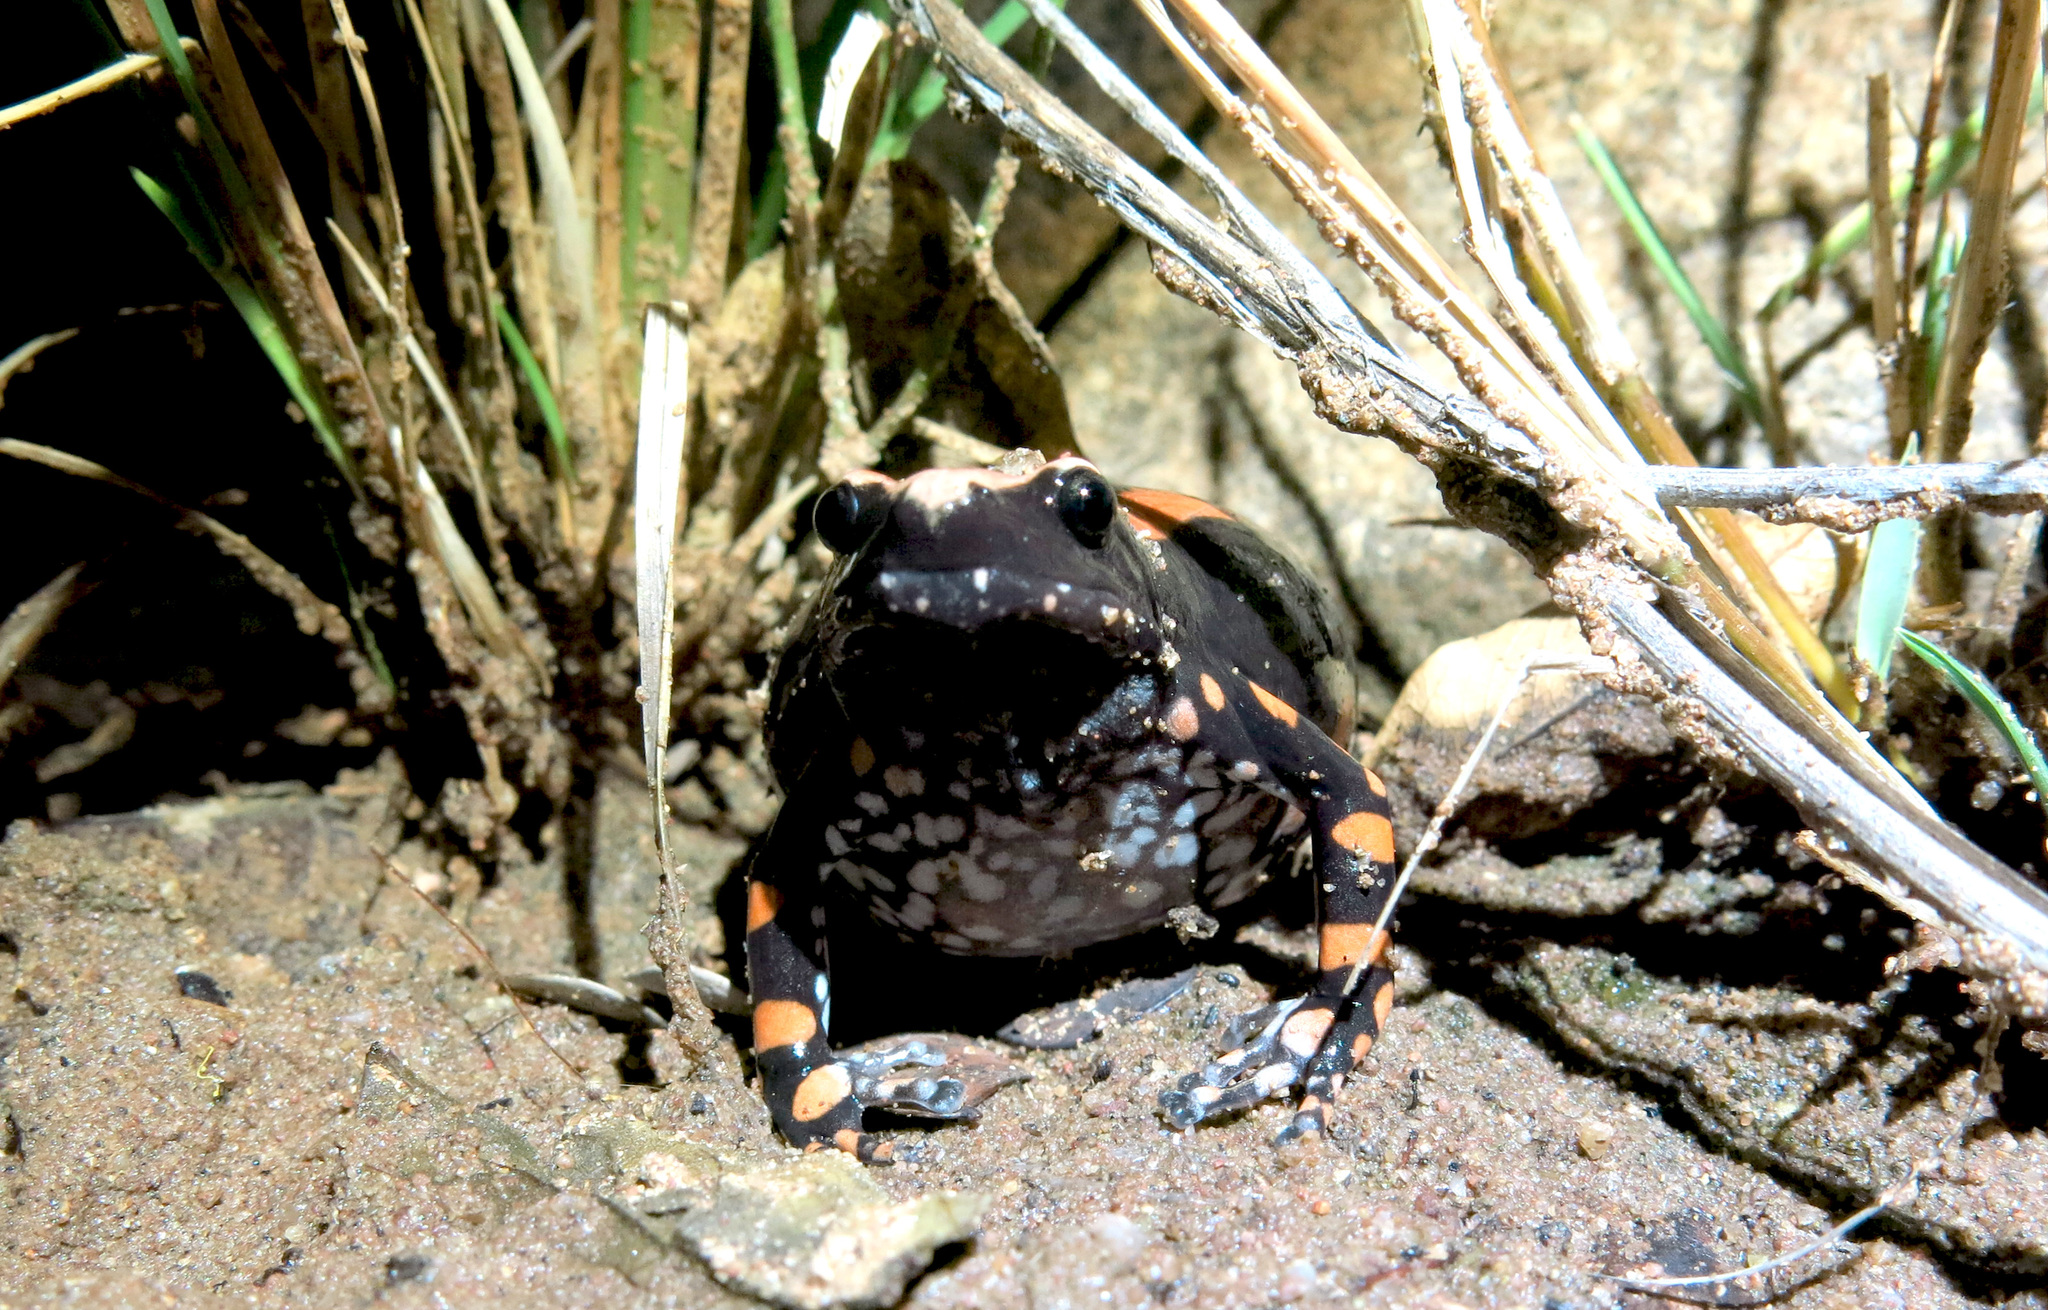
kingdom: Animalia
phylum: Chordata
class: Amphibia
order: Anura
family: Microhylidae
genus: Phrynomantis
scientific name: Phrynomantis bifasciatus
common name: Banded rubber frog
